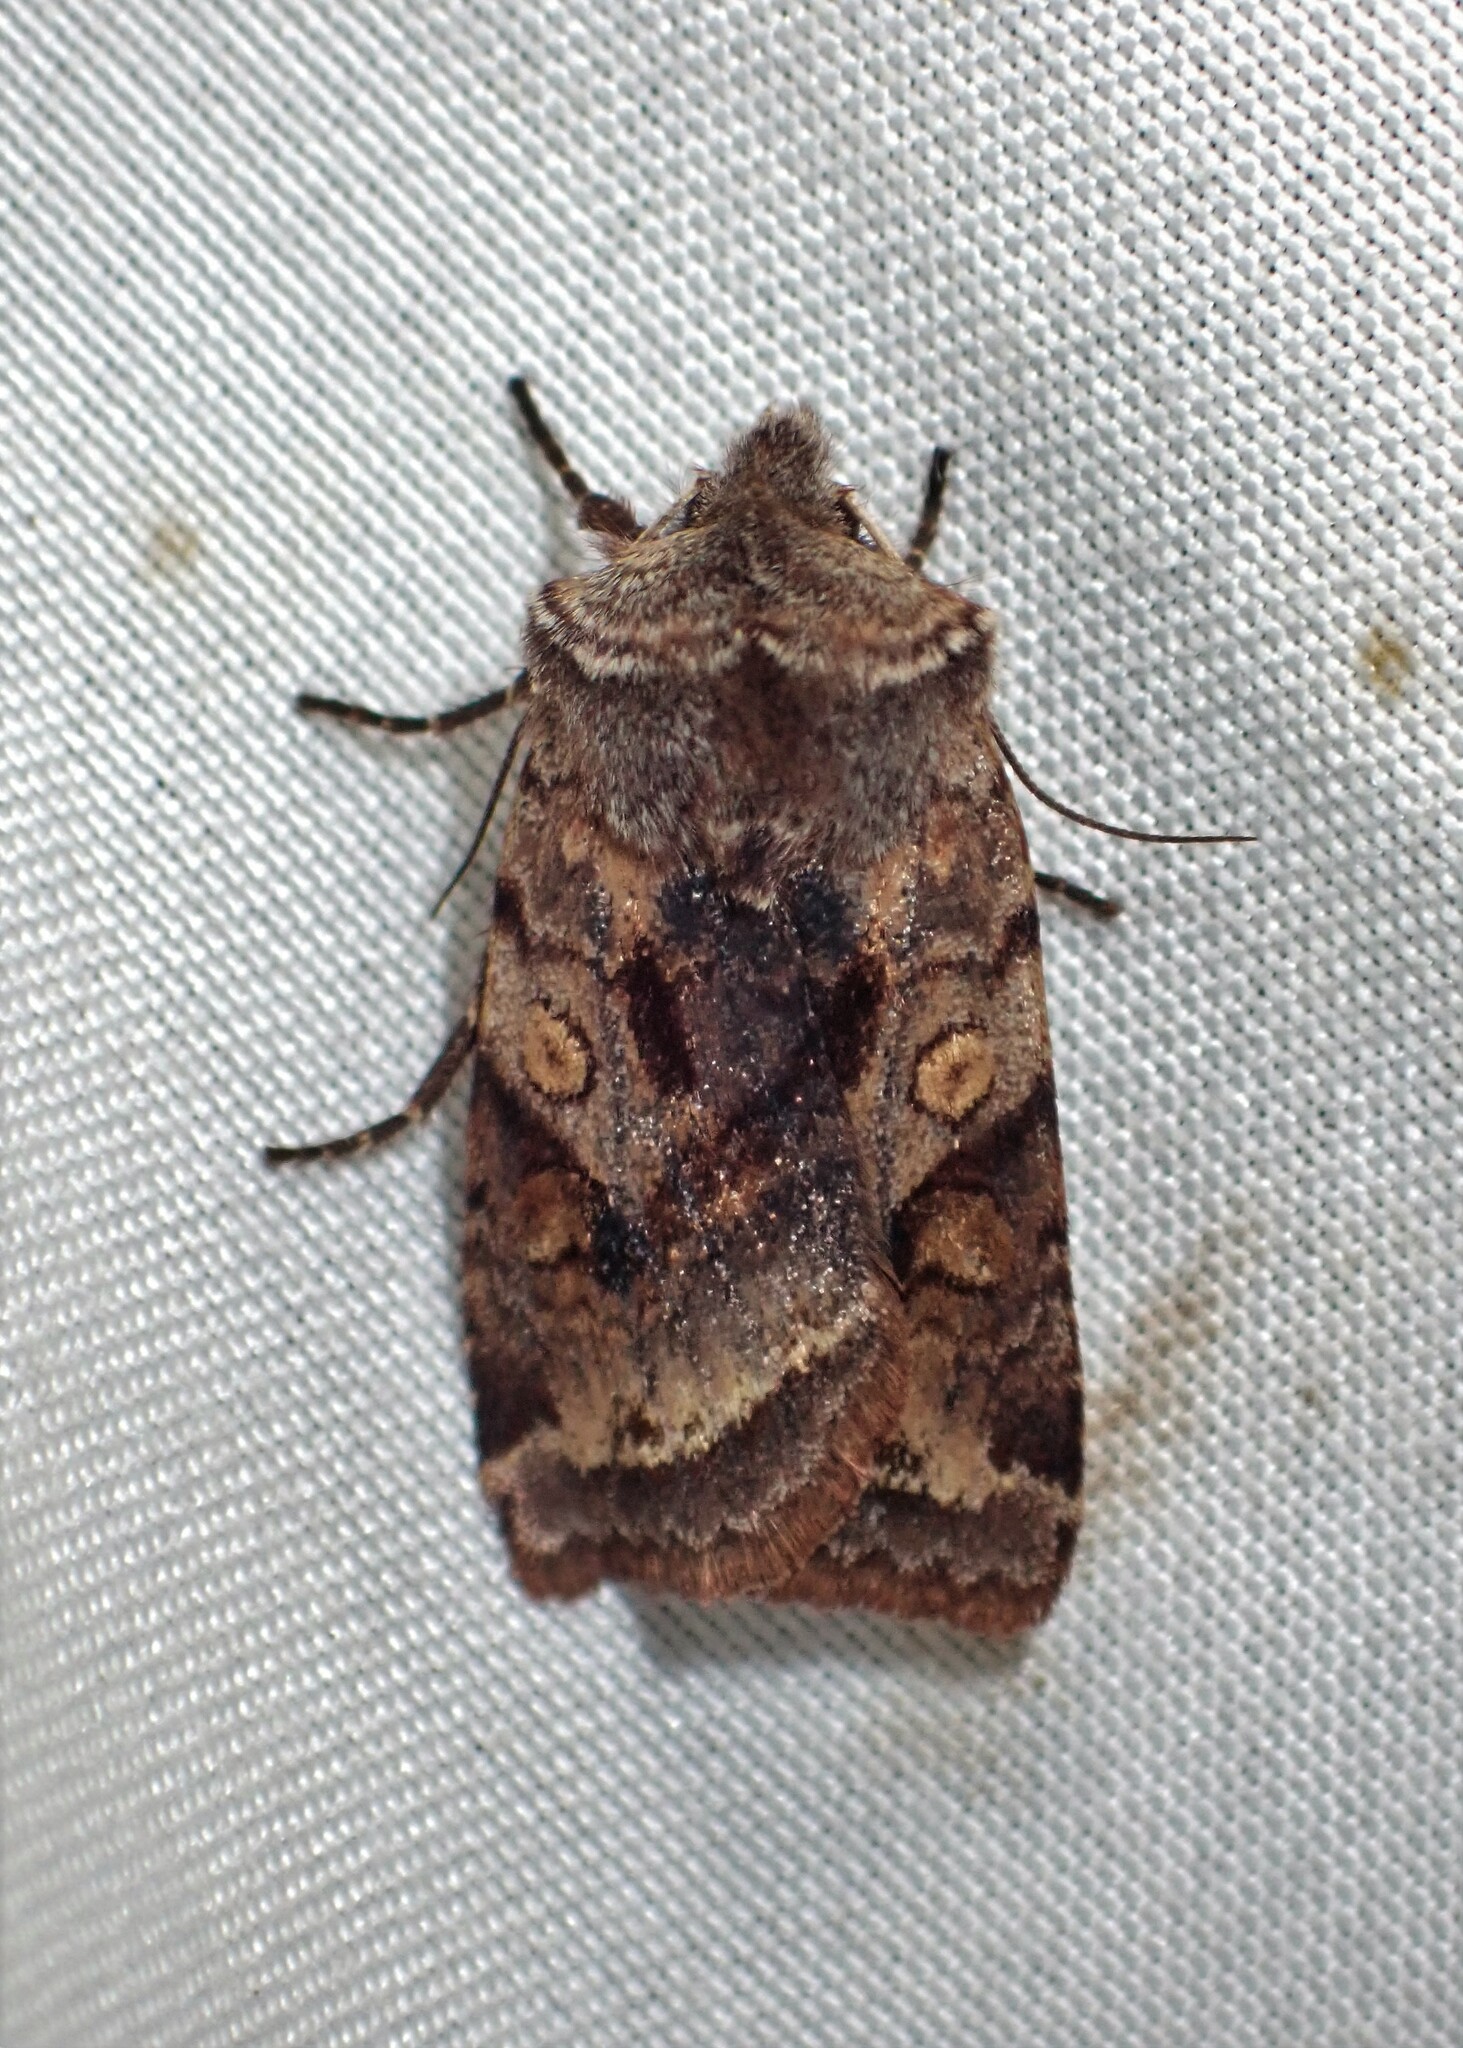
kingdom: Animalia
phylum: Arthropoda
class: Insecta
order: Lepidoptera
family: Noctuidae
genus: Cerastis
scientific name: Cerastis salicarum
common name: Willow dart
